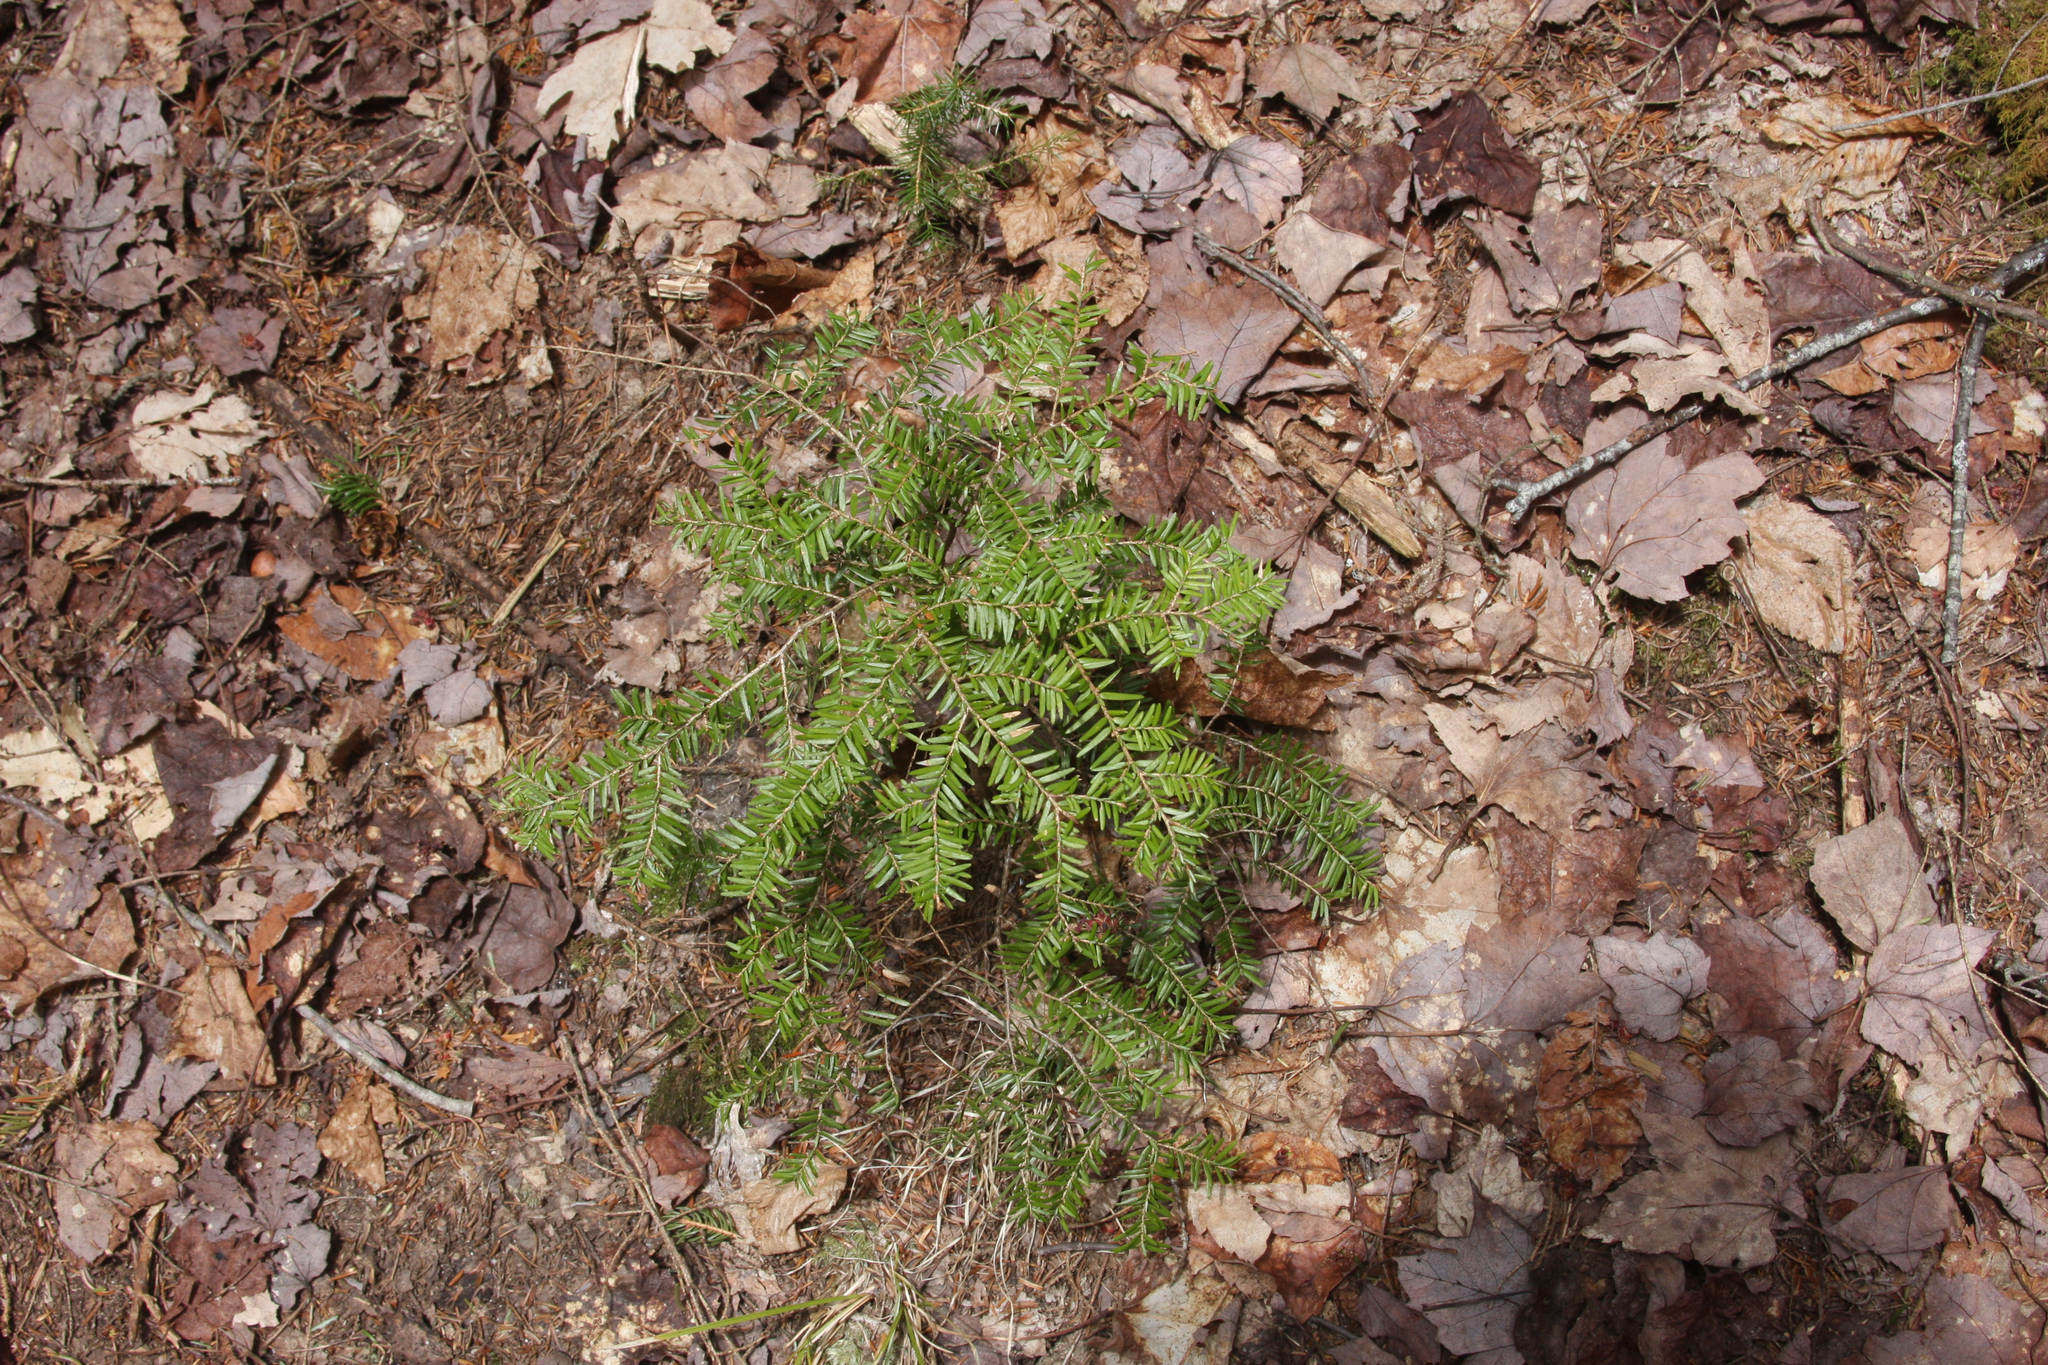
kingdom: Plantae
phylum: Tracheophyta
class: Pinopsida
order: Pinales
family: Pinaceae
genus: Tsuga
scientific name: Tsuga canadensis
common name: Eastern hemlock
